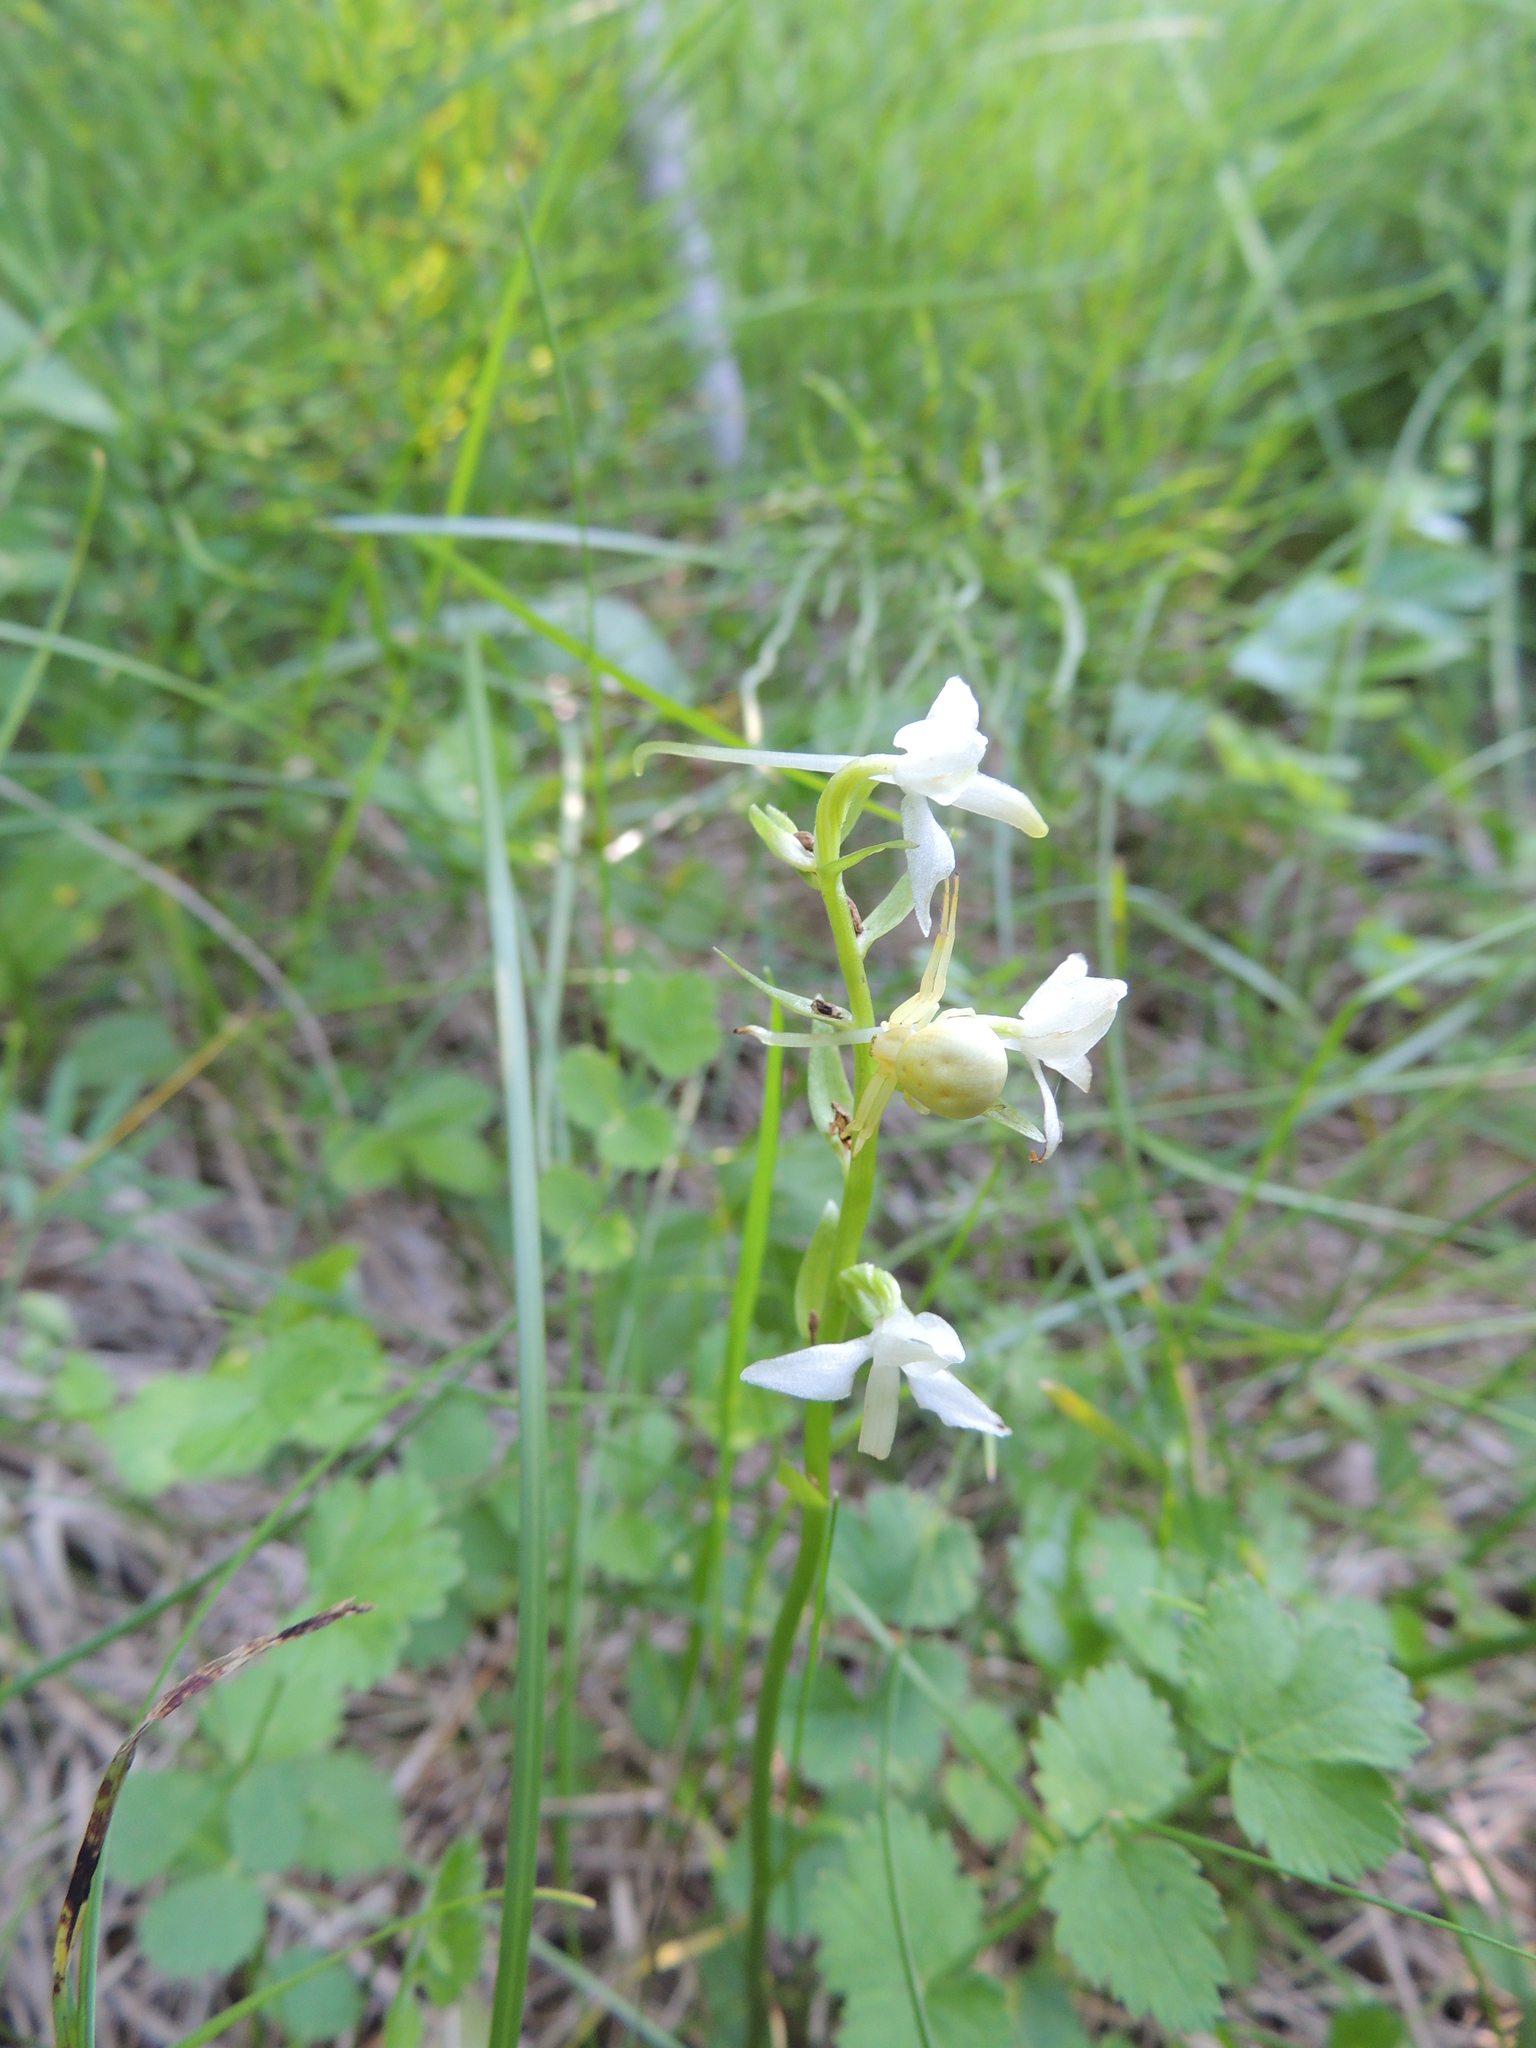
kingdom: Plantae
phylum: Tracheophyta
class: Liliopsida
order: Asparagales
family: Orchidaceae
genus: Platanthera
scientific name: Platanthera bifolia
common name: Lesser butterfly-orchid
